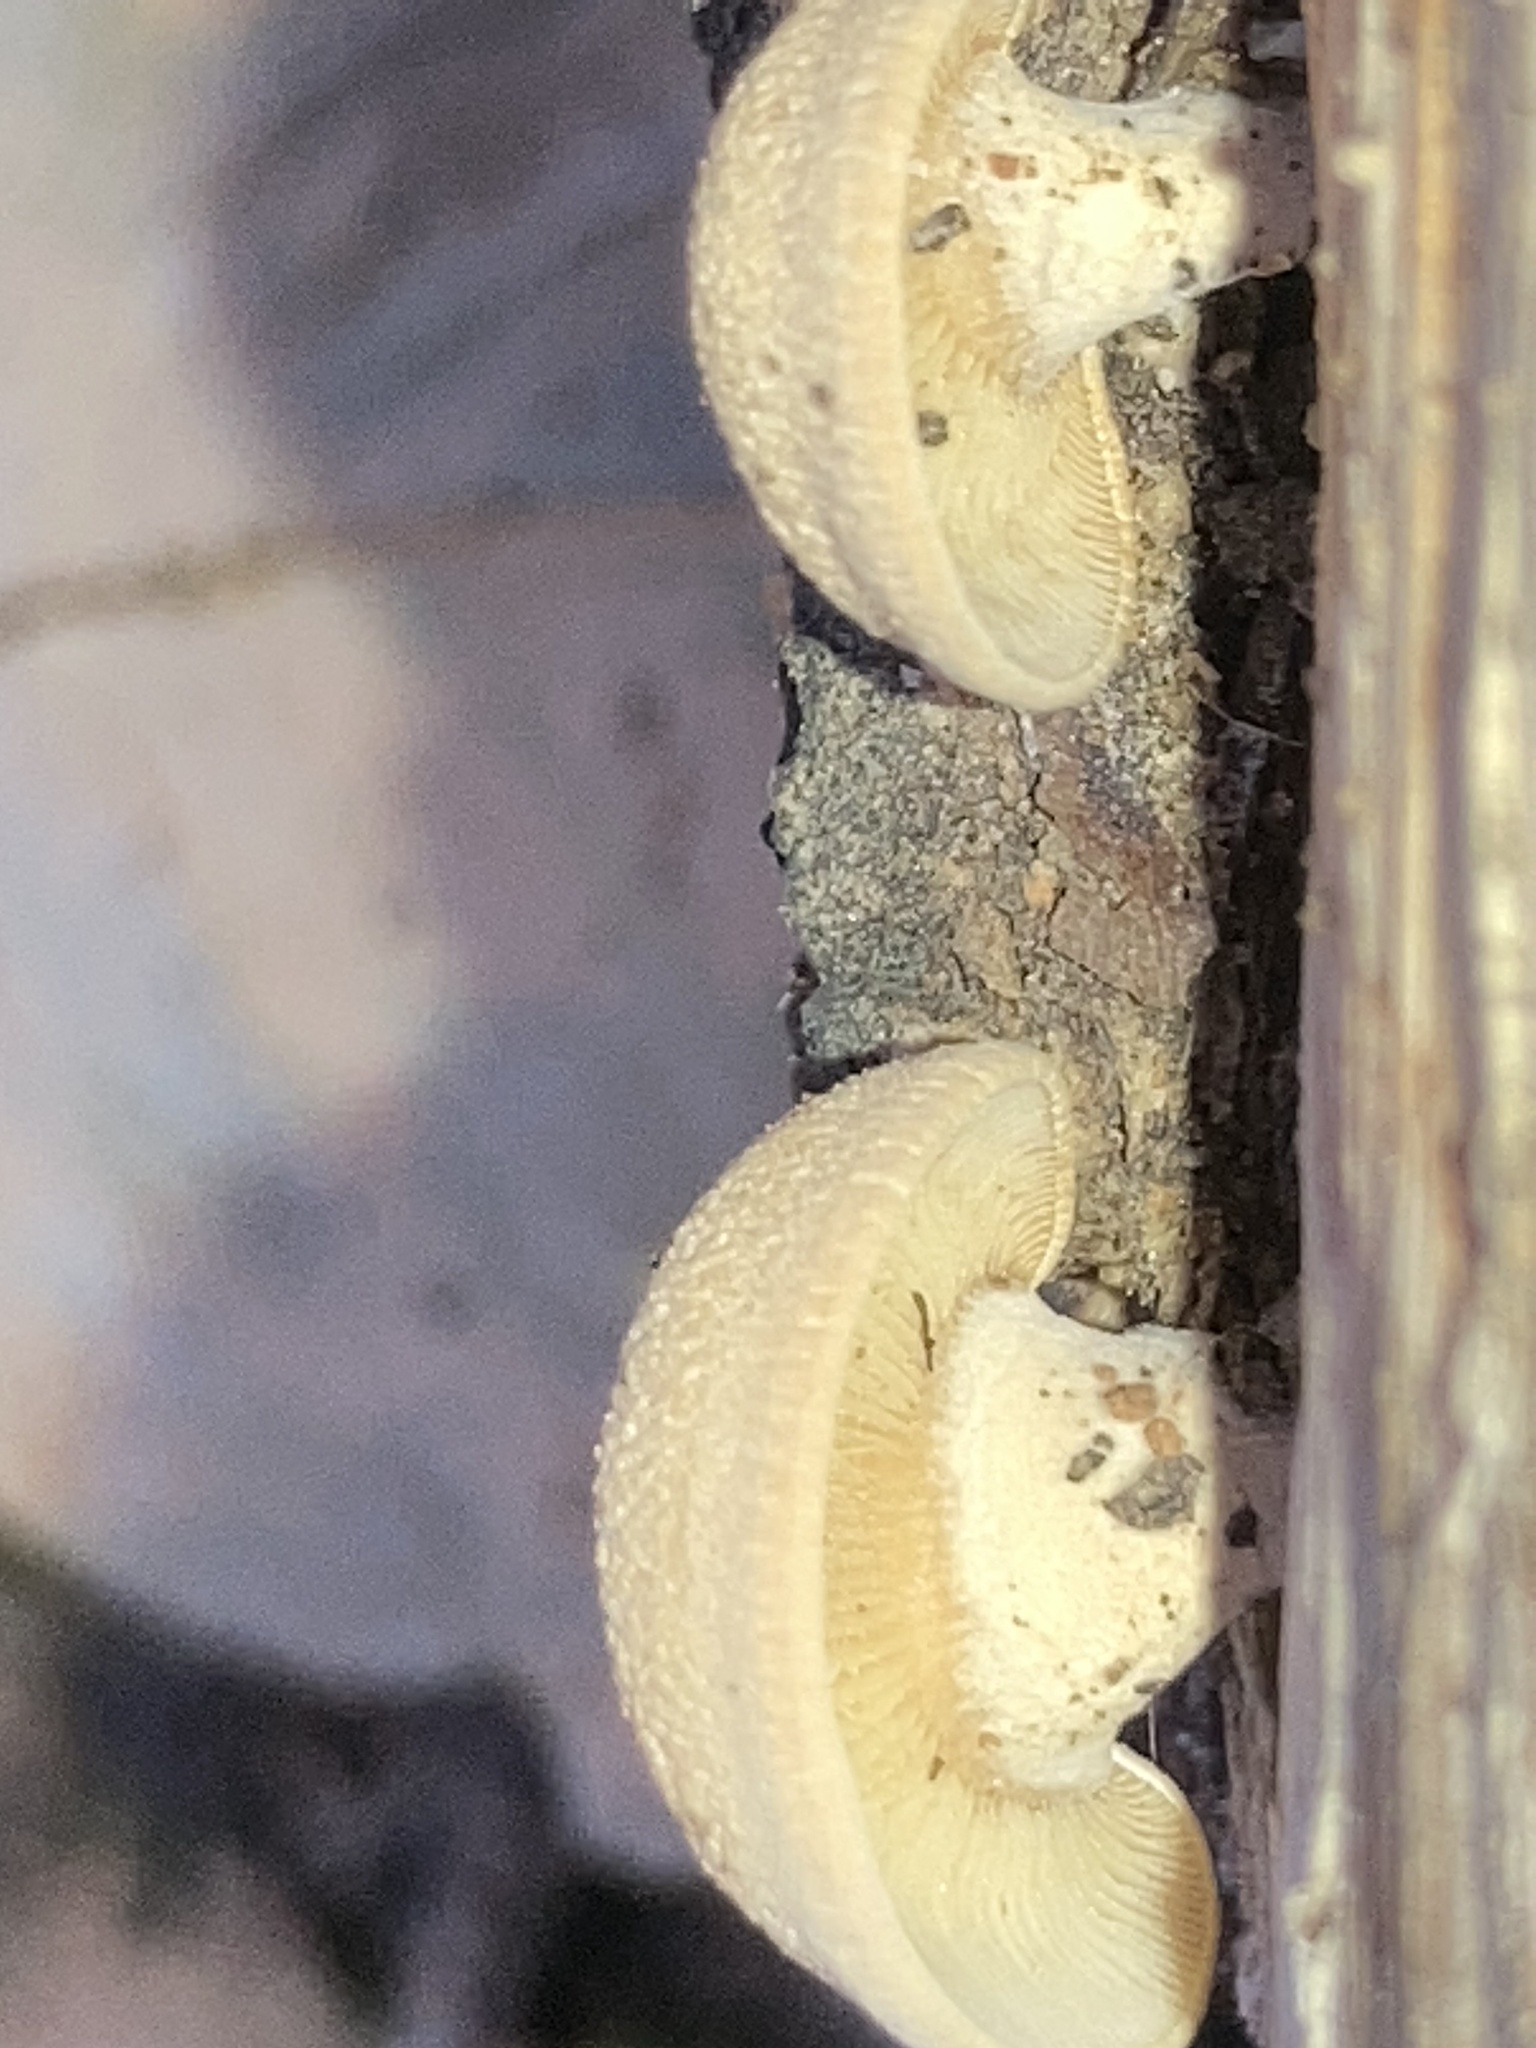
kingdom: Fungi
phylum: Basidiomycota
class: Agaricomycetes
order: Agaricales
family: Mycenaceae
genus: Panellus
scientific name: Panellus stipticus
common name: Bitter oysterling
